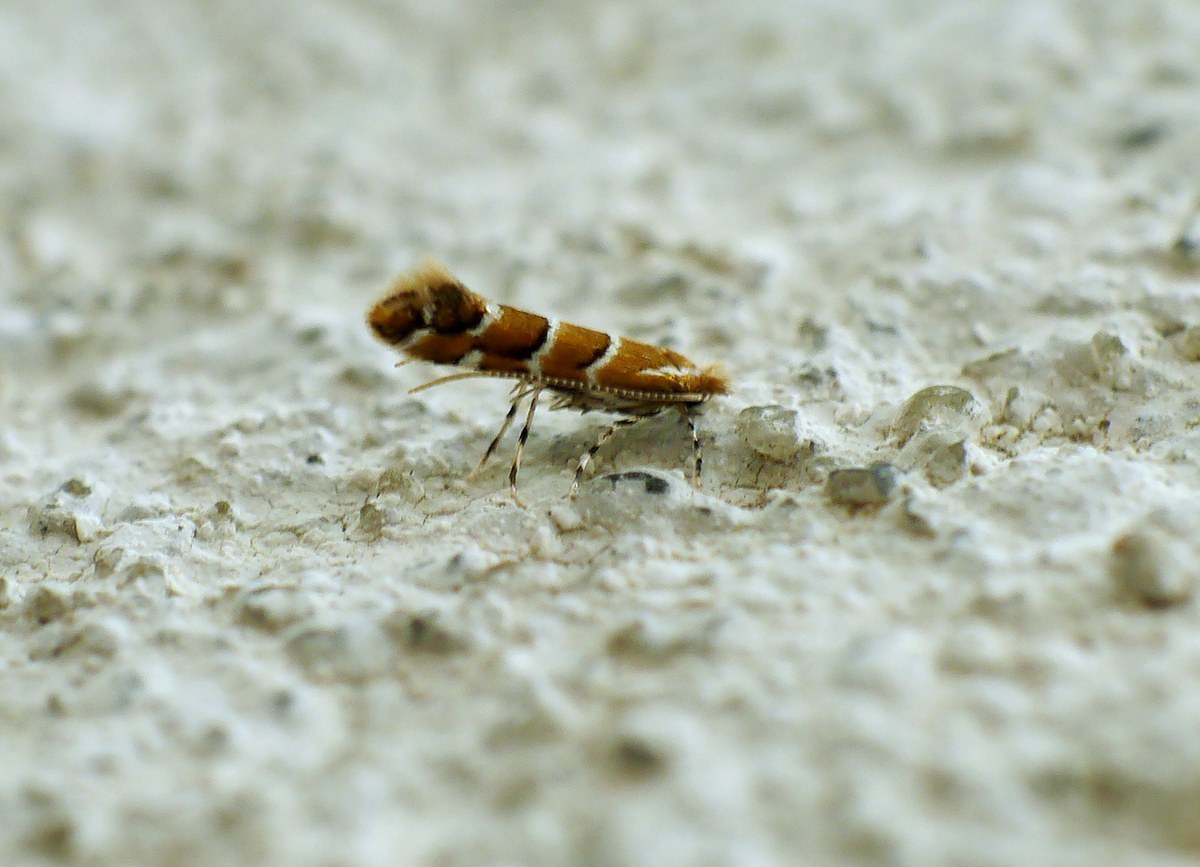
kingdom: Animalia
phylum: Arthropoda
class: Insecta
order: Lepidoptera
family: Gracillariidae
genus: Cameraria
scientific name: Cameraria ohridella
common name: Horse-chestnut leaf-miner
